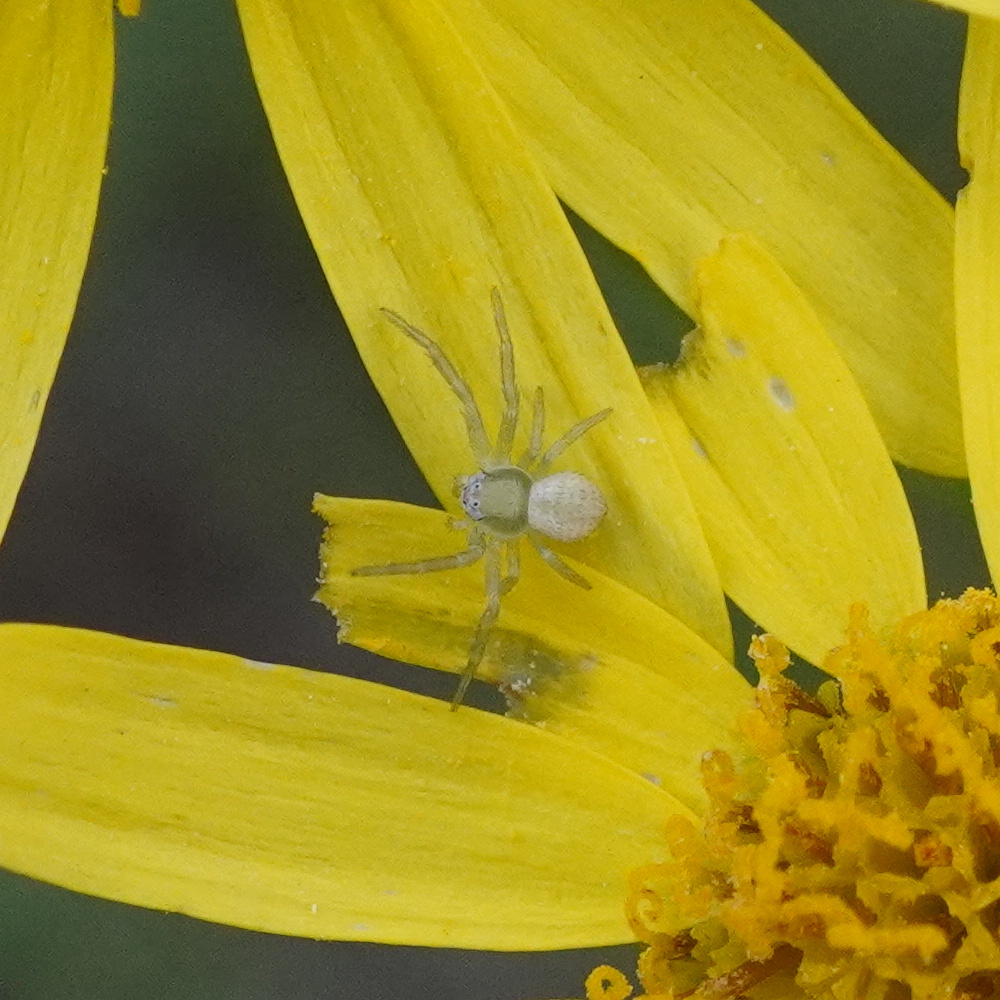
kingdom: Animalia
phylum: Arthropoda
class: Arachnida
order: Araneae
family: Thomisidae
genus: Misumena
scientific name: Misumena vatia
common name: Goldenrod crab spider
